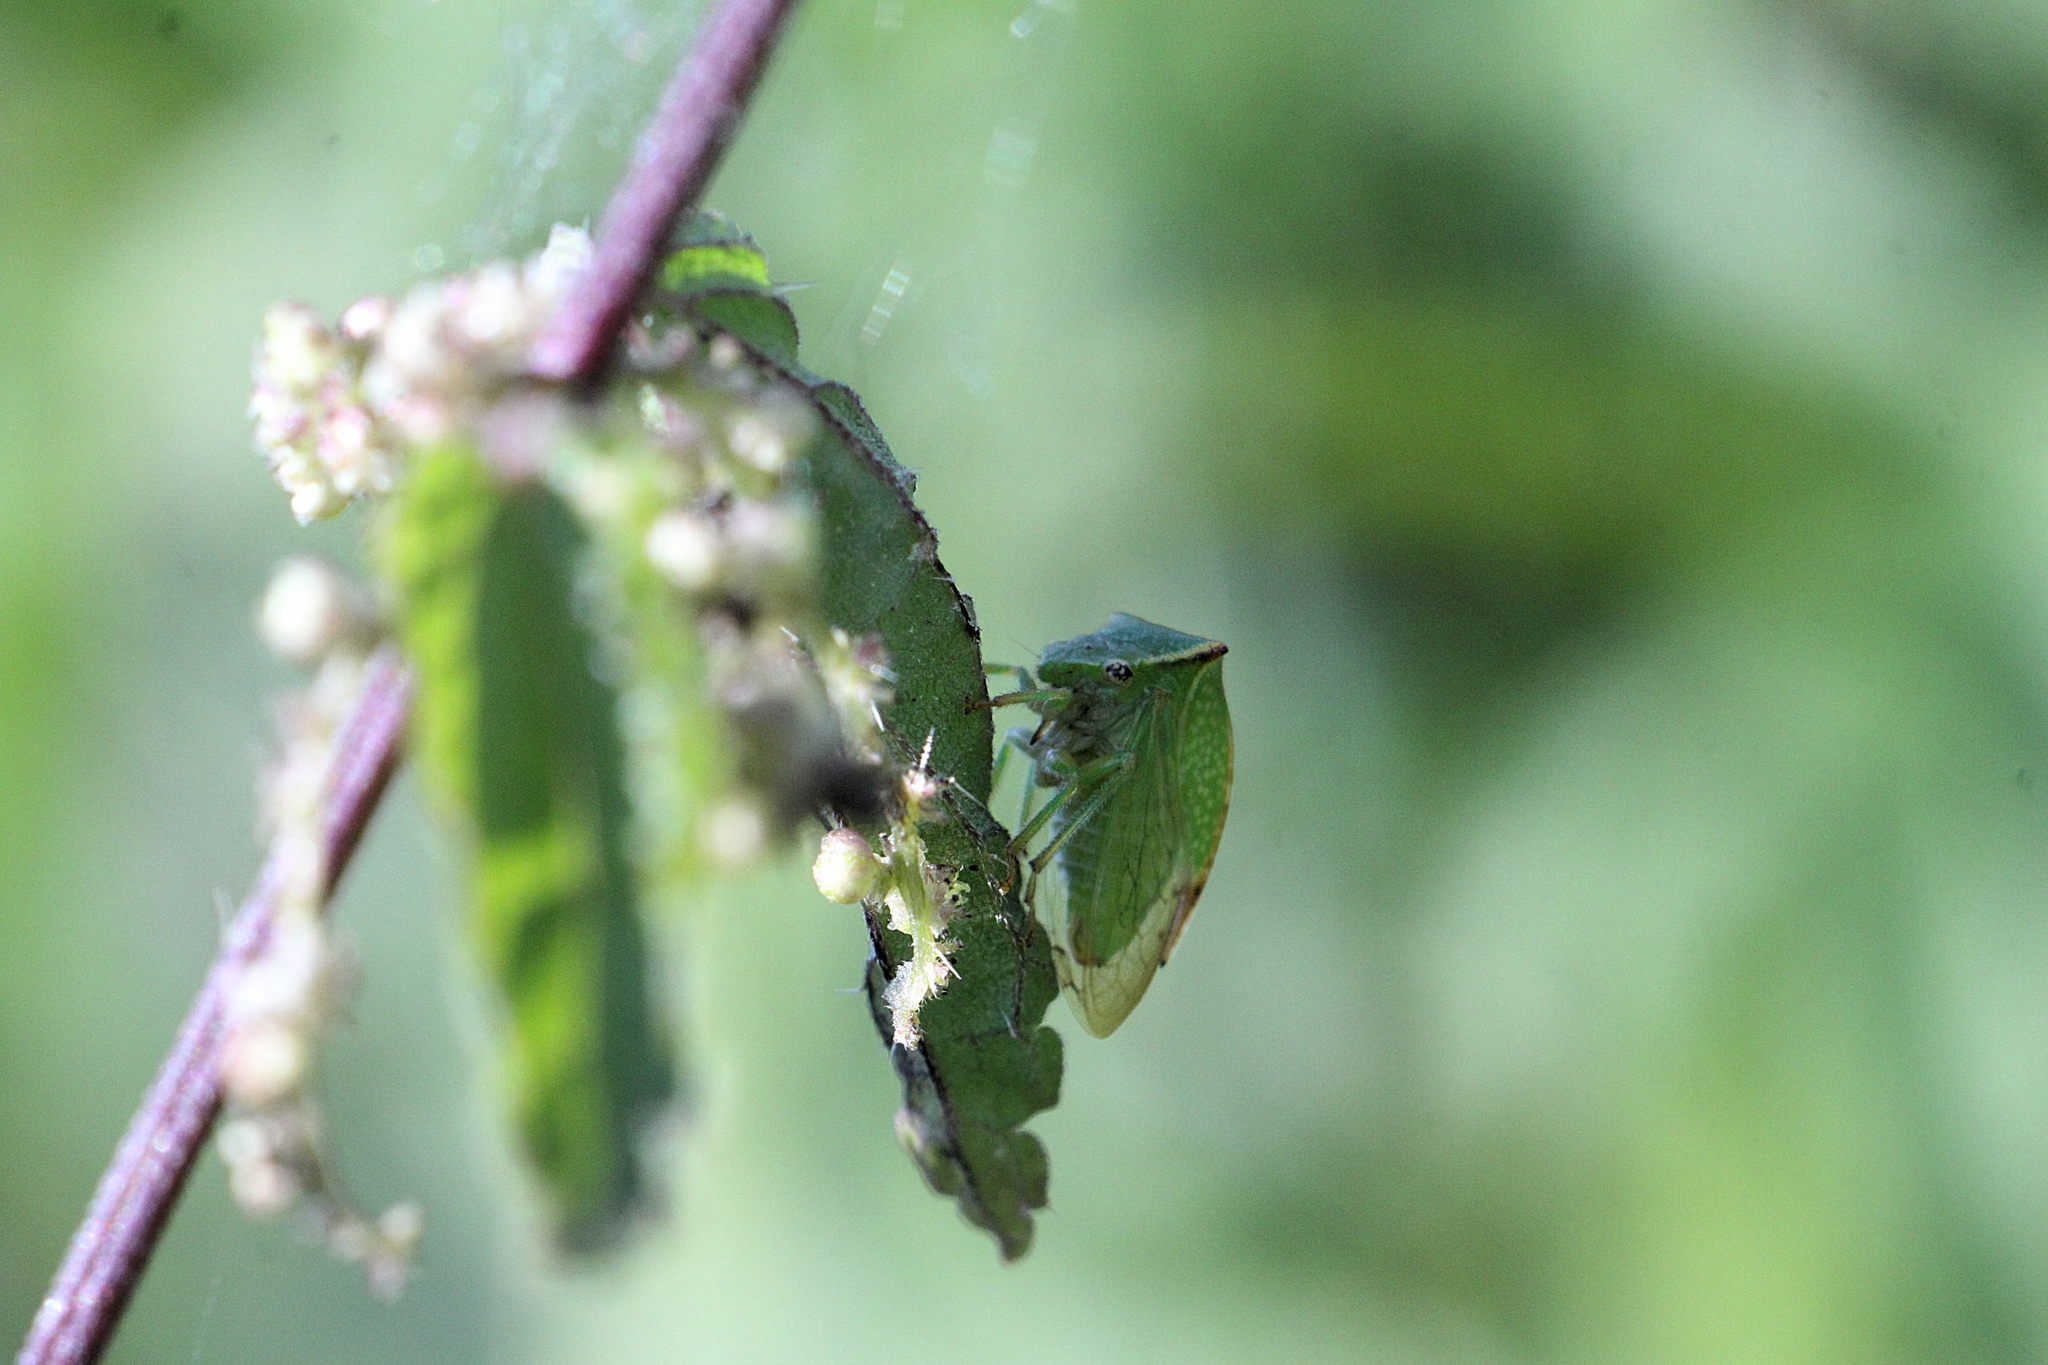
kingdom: Animalia
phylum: Arthropoda
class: Insecta
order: Hemiptera
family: Membracidae
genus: Stictocephala
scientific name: Stictocephala bisonia
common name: American buffalo treehopper
